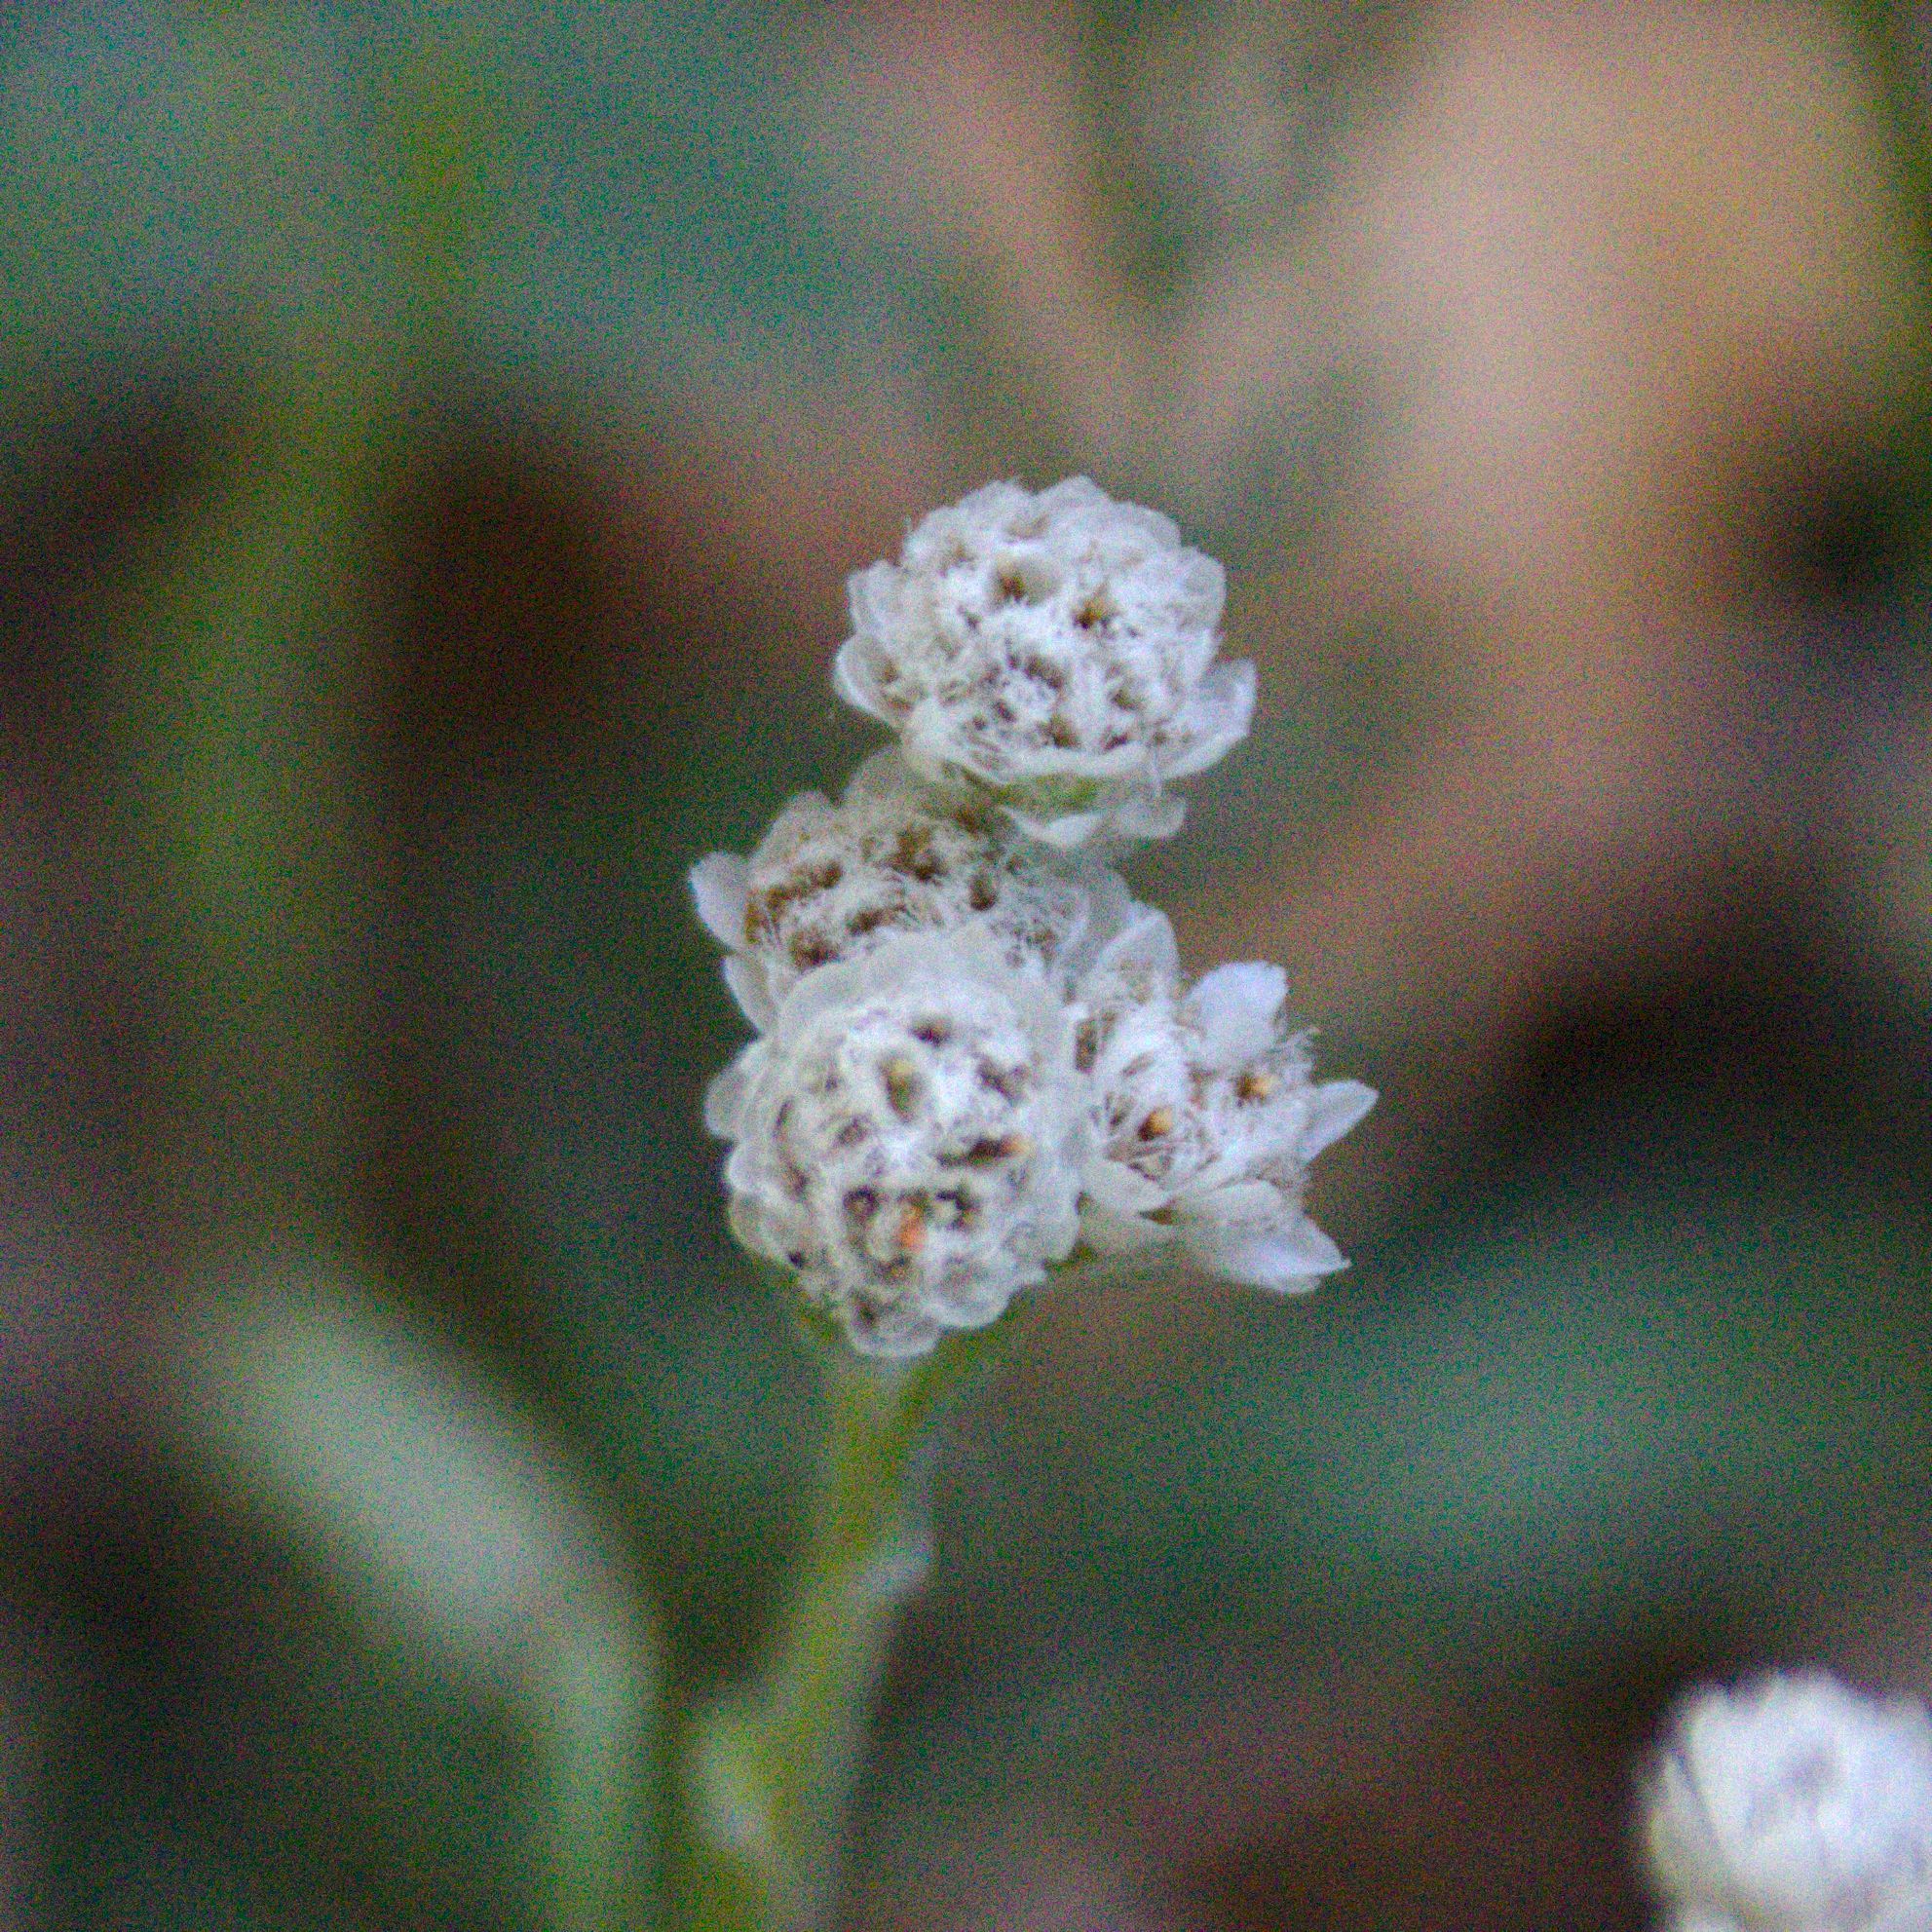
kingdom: Plantae
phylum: Tracheophyta
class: Magnoliopsida
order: Asterales
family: Asteraceae
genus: Antennaria
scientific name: Antennaria dioica
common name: Mountain everlasting
